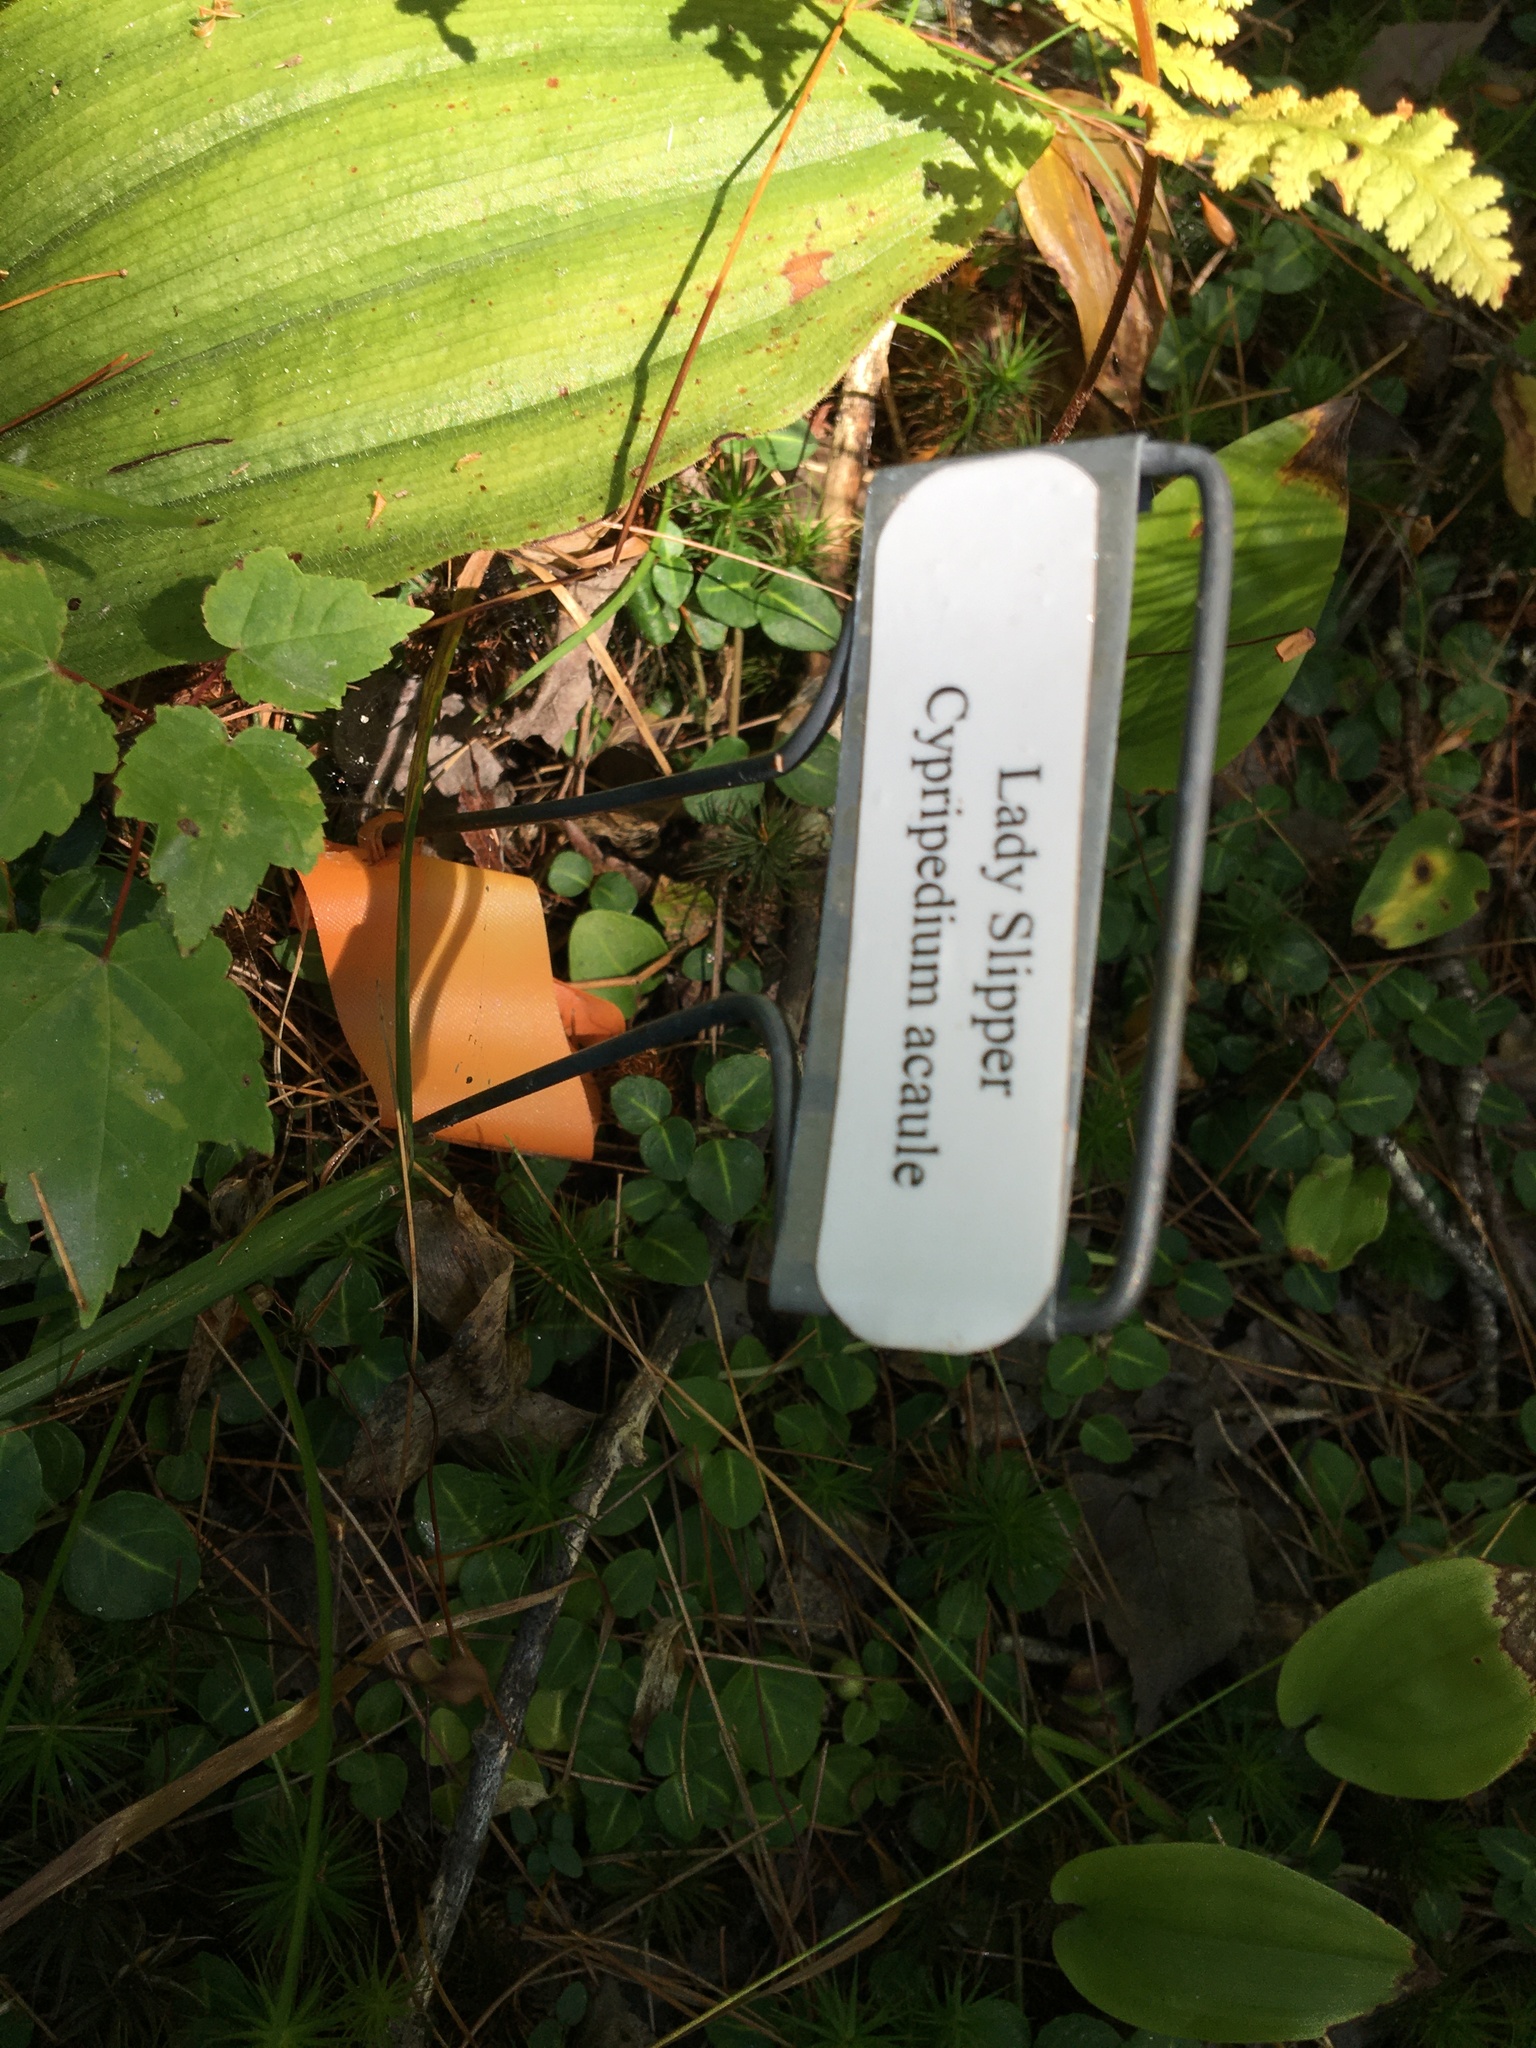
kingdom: Plantae
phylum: Tracheophyta
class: Liliopsida
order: Asparagales
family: Orchidaceae
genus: Cypripedium
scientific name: Cypripedium acaule
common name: Pink lady's-slipper
